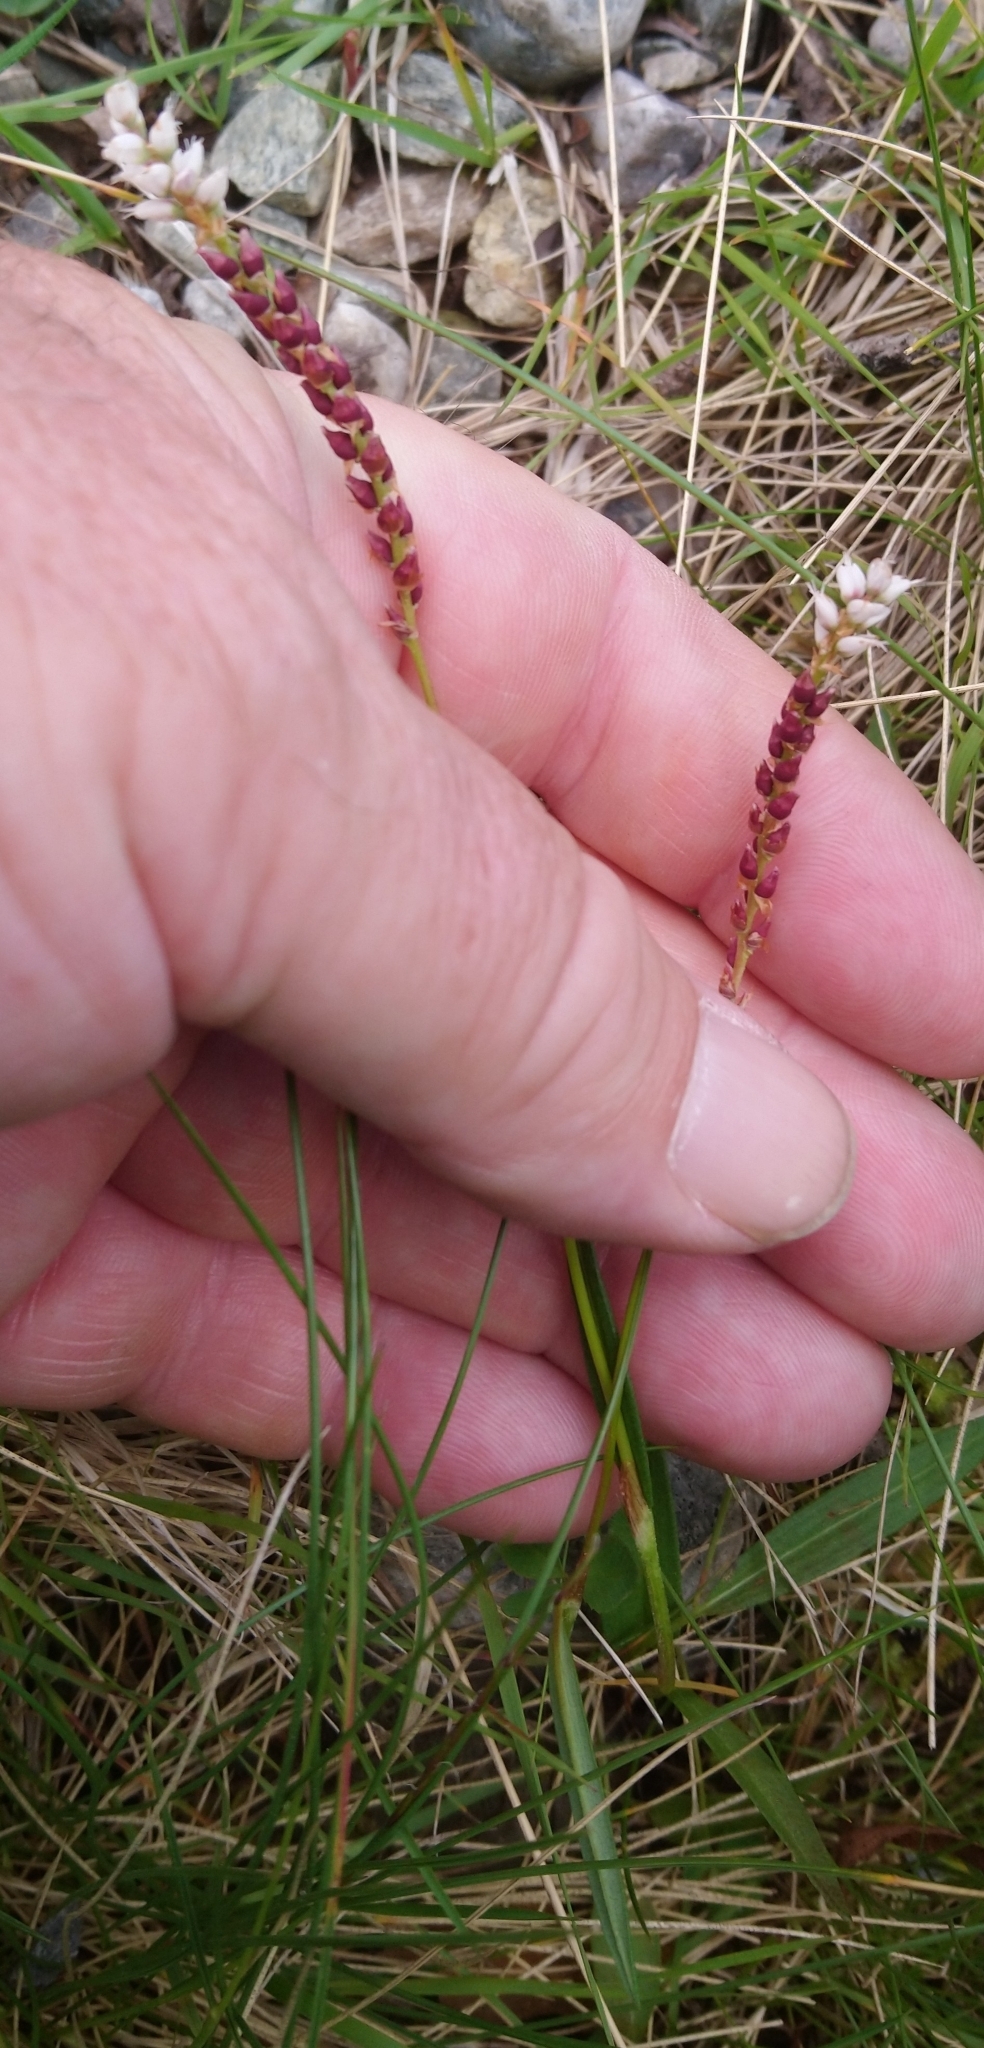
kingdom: Plantae
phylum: Tracheophyta
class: Magnoliopsida
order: Caryophyllales
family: Polygonaceae
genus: Bistorta
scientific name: Bistorta vivipara
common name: Alpine bistort
